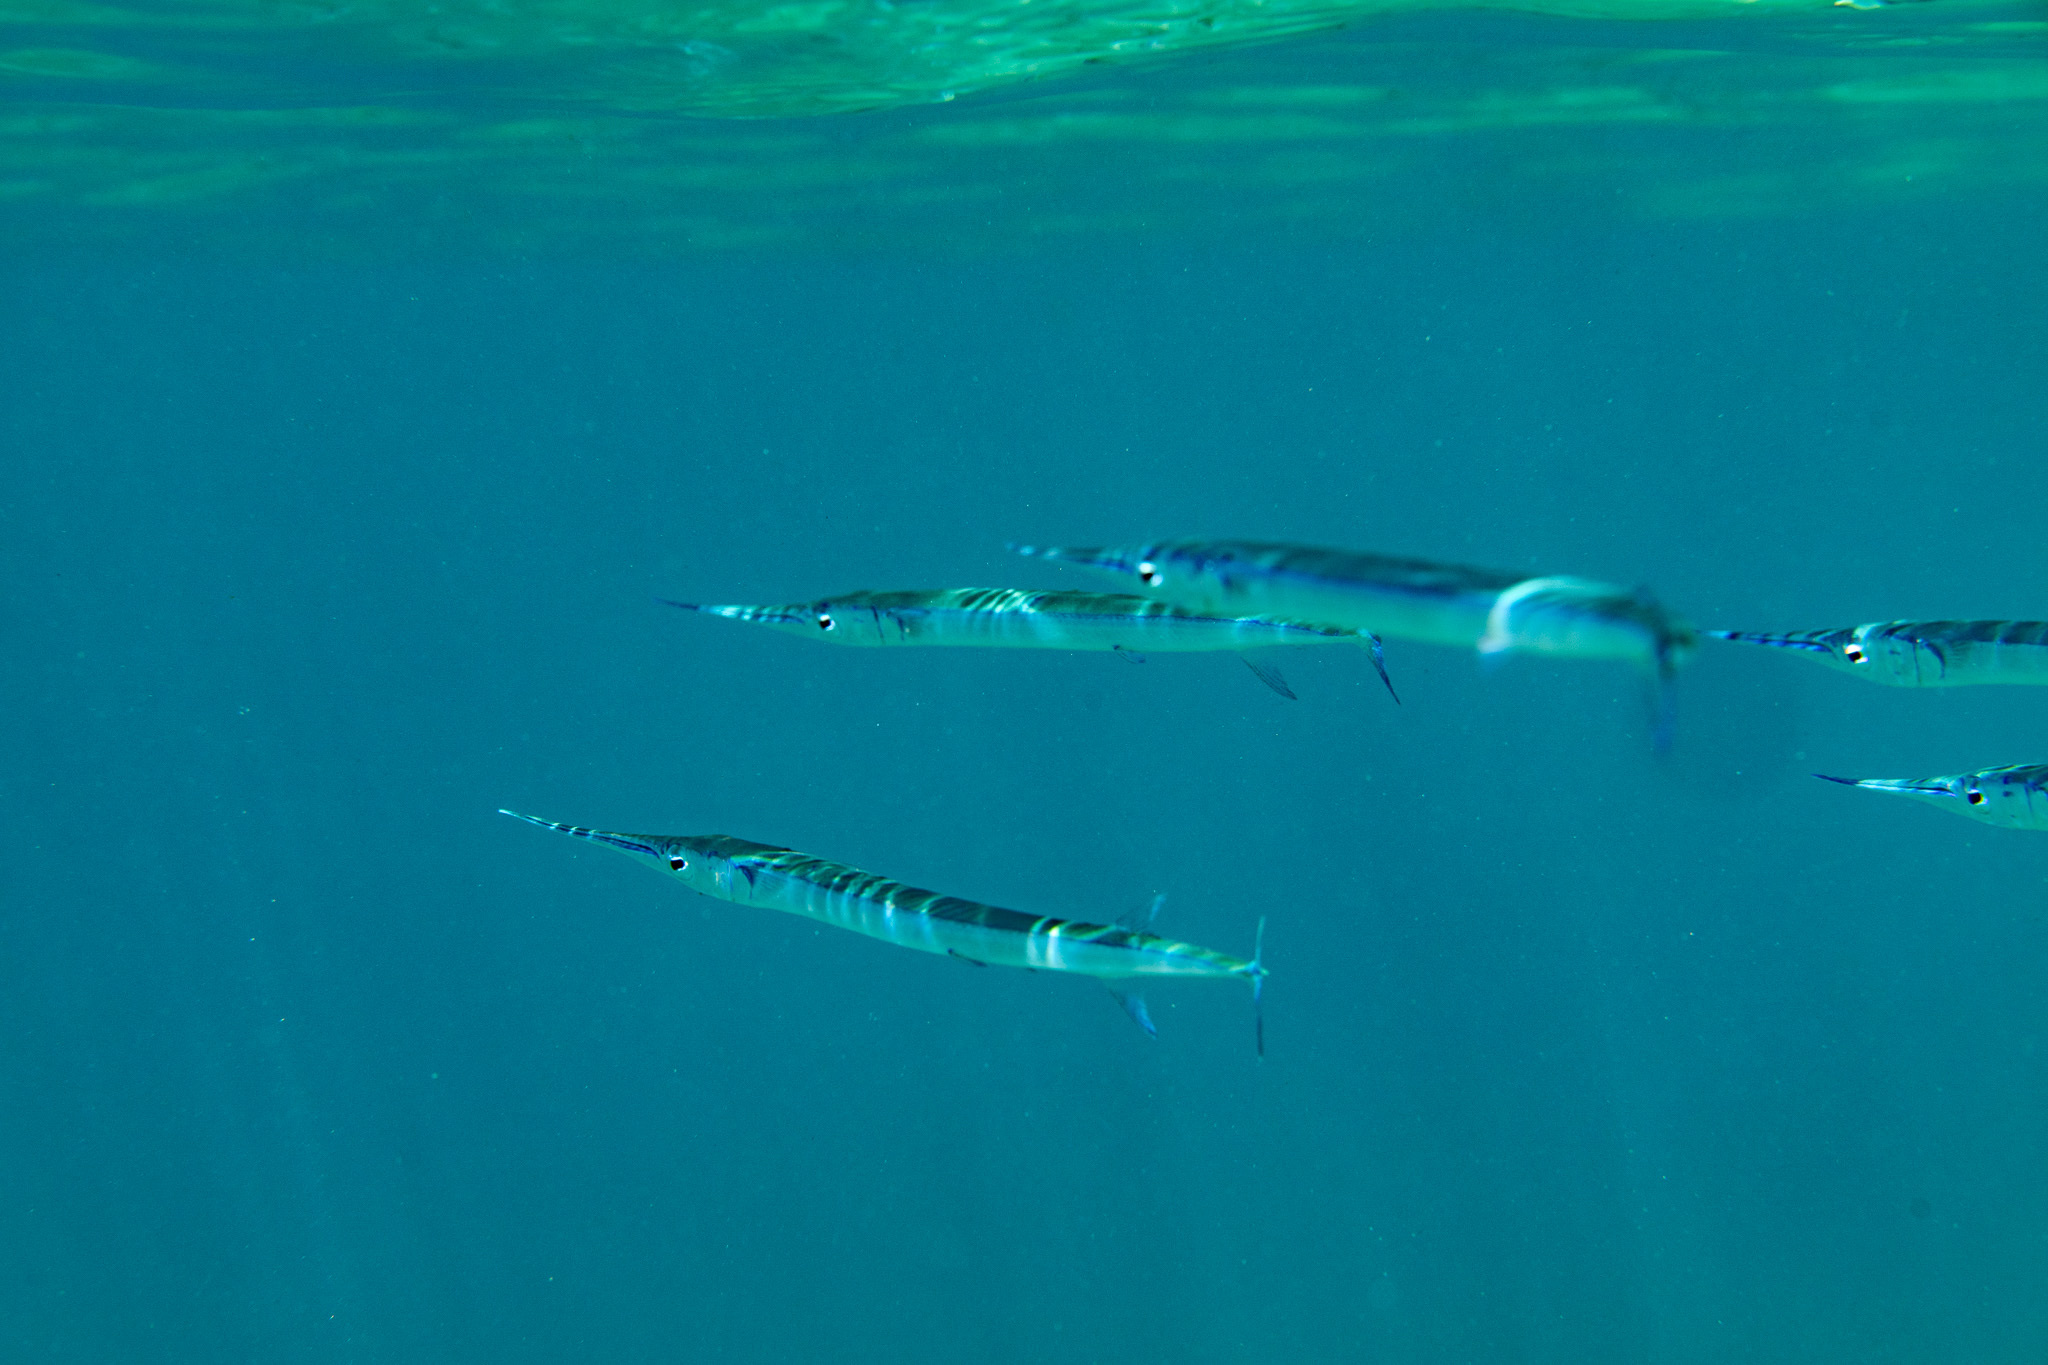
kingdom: Animalia
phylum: Chordata
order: Beloniformes
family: Belonidae
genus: Platybelone
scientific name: Platybelone argalus
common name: Keeltail needlefish
